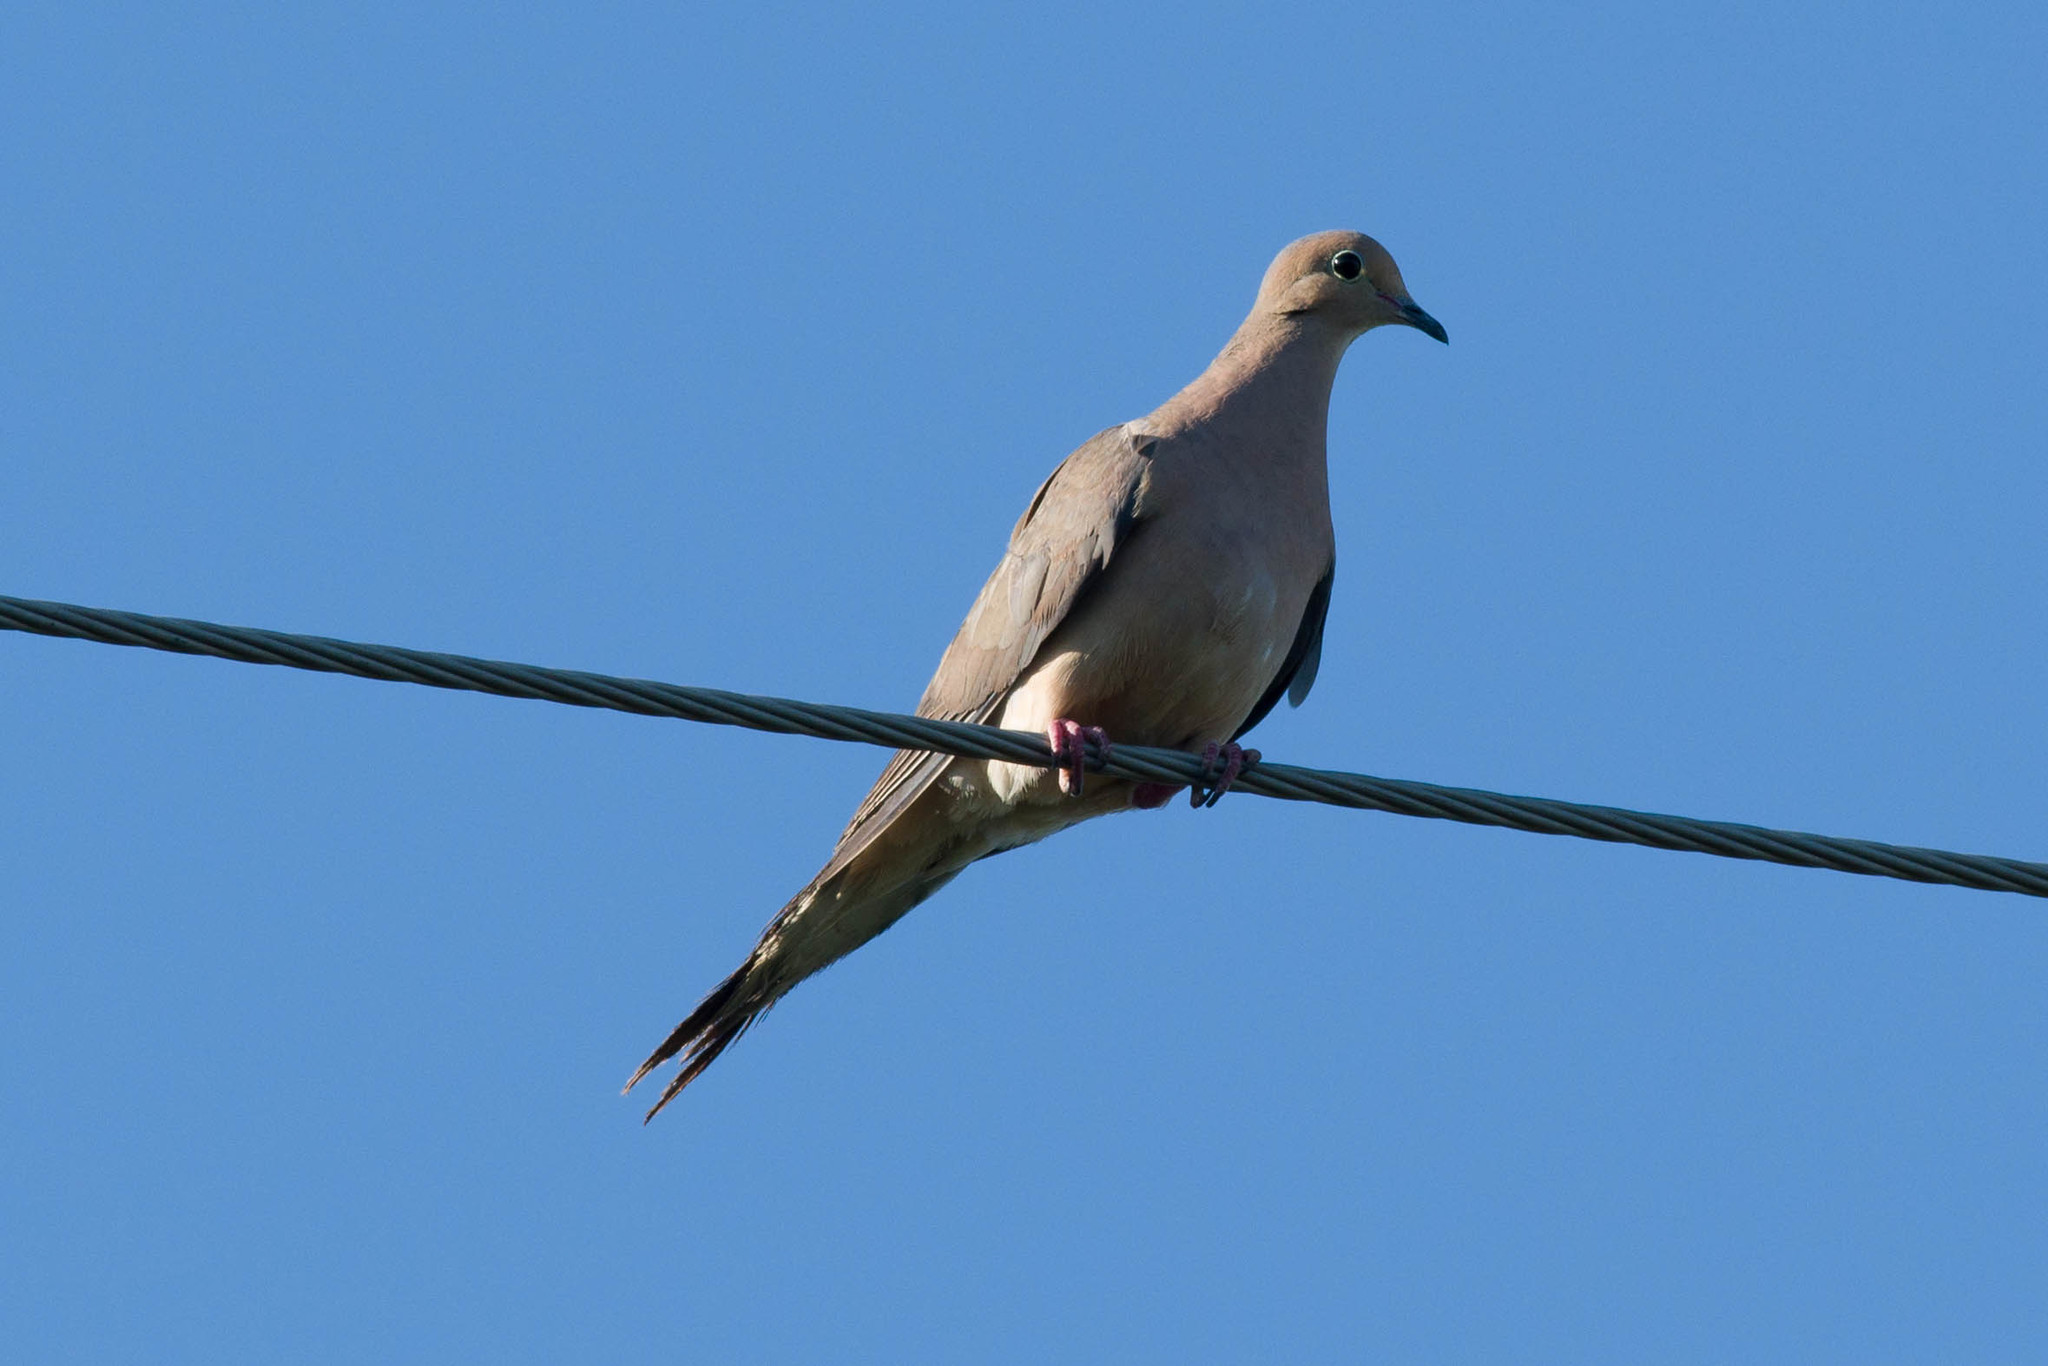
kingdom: Animalia
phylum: Chordata
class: Aves
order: Columbiformes
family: Columbidae
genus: Zenaida
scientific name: Zenaida macroura
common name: Mourning dove
